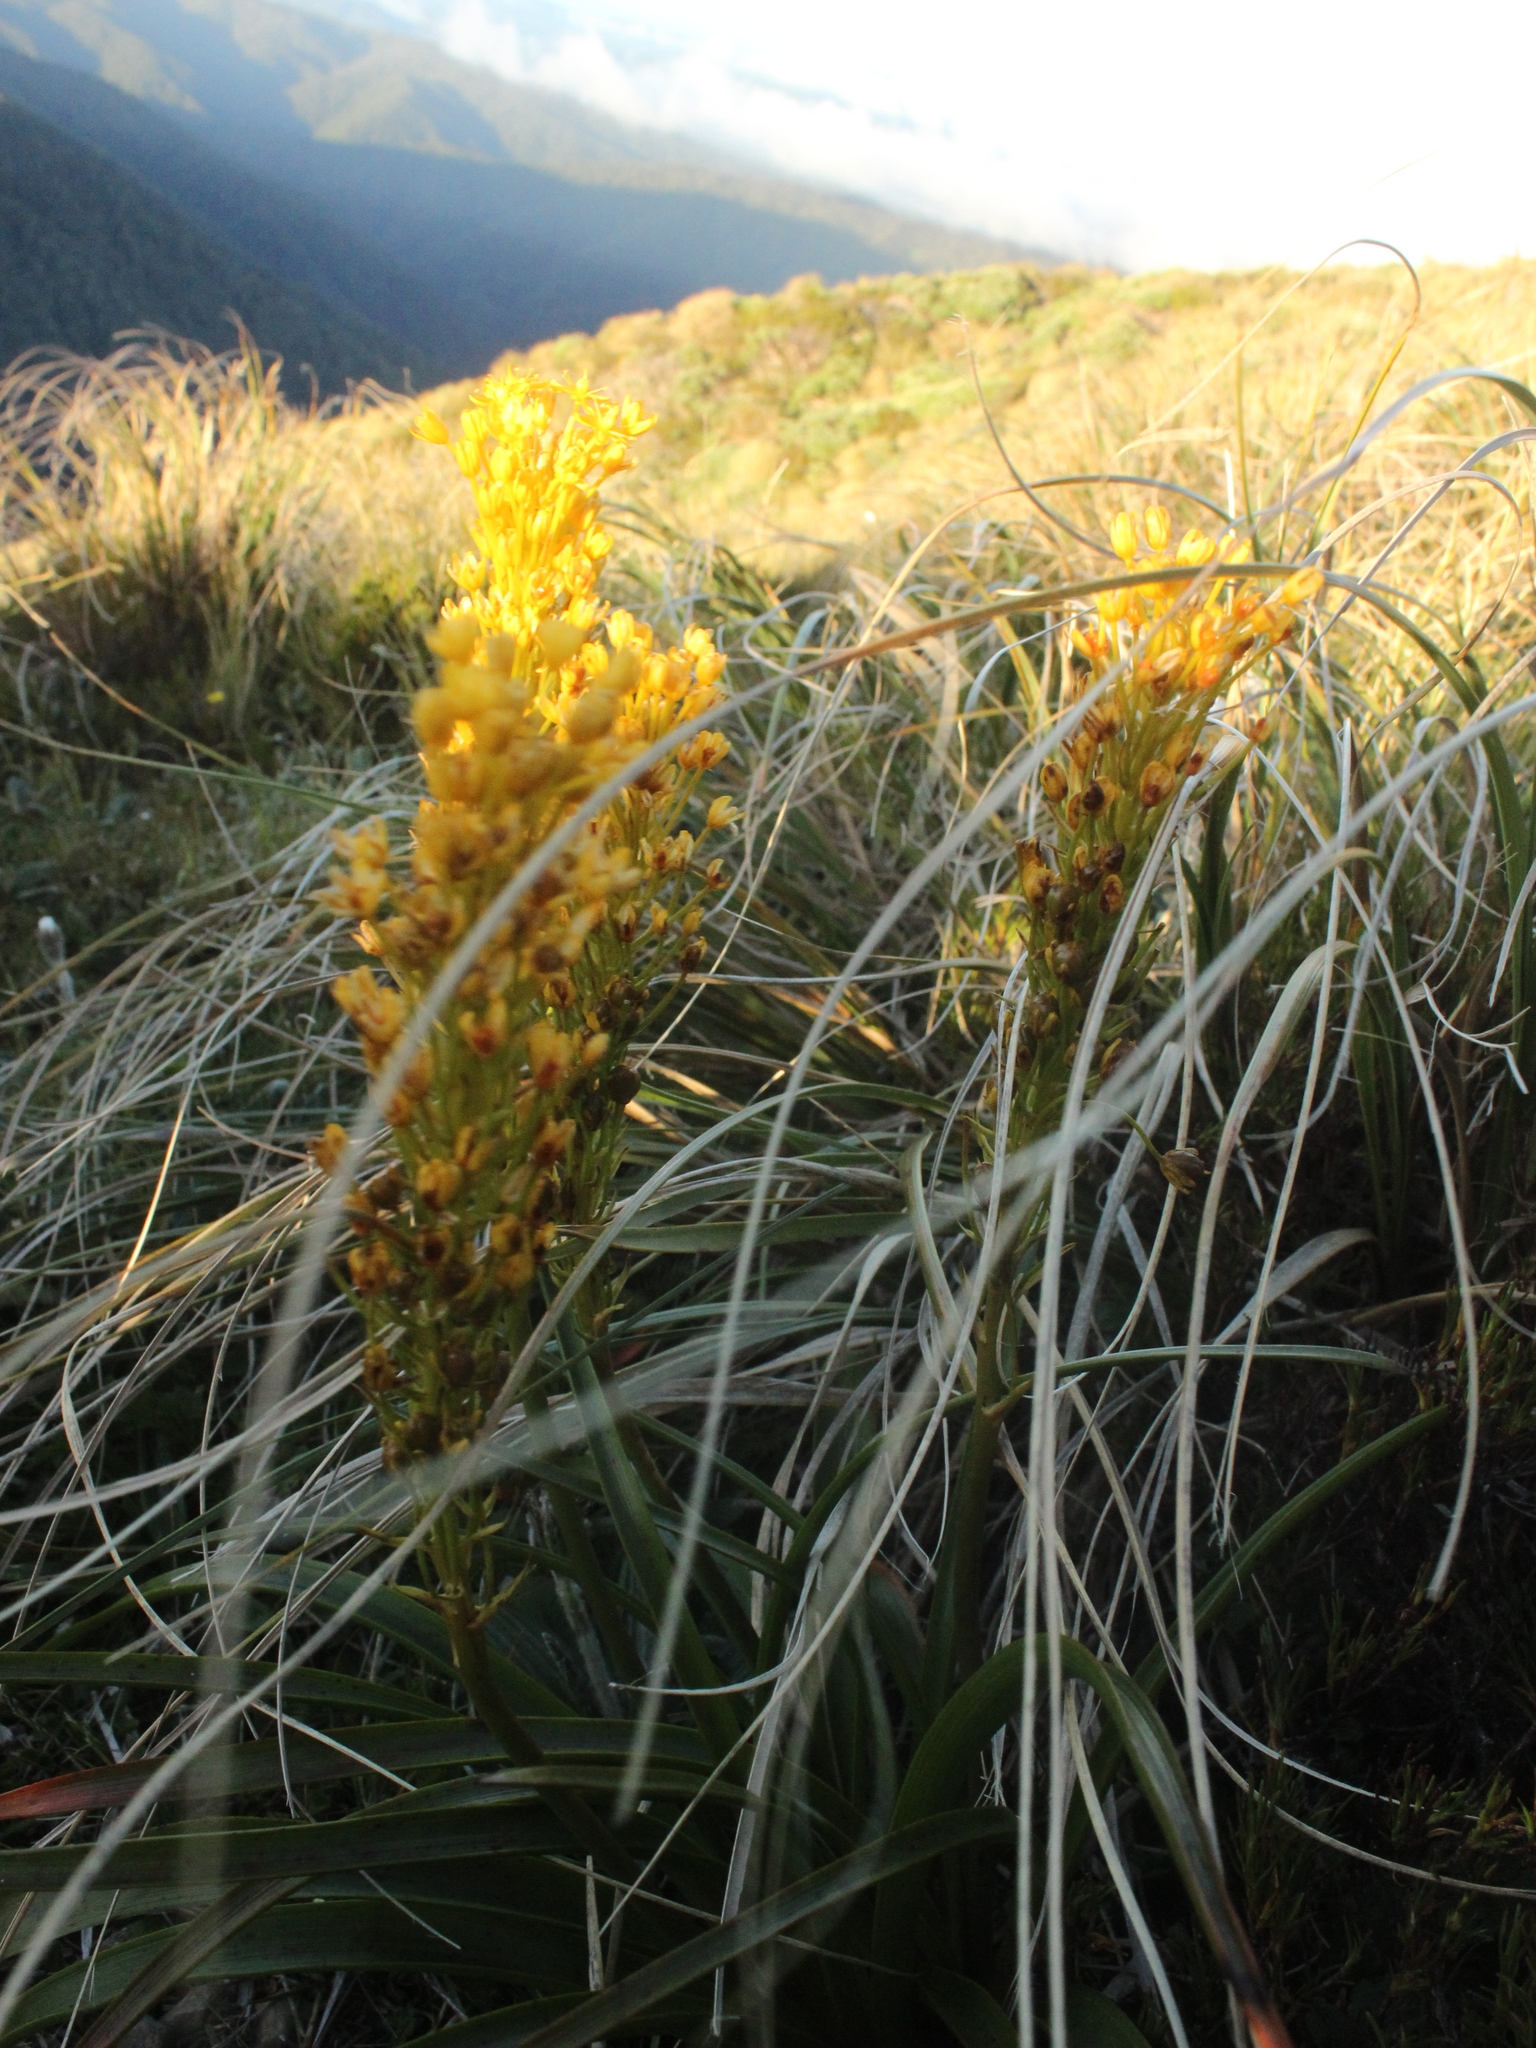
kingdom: Plantae
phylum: Tracheophyta
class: Liliopsida
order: Asparagales
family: Asphodelaceae
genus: Bulbinella
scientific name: Bulbinella hookeri
